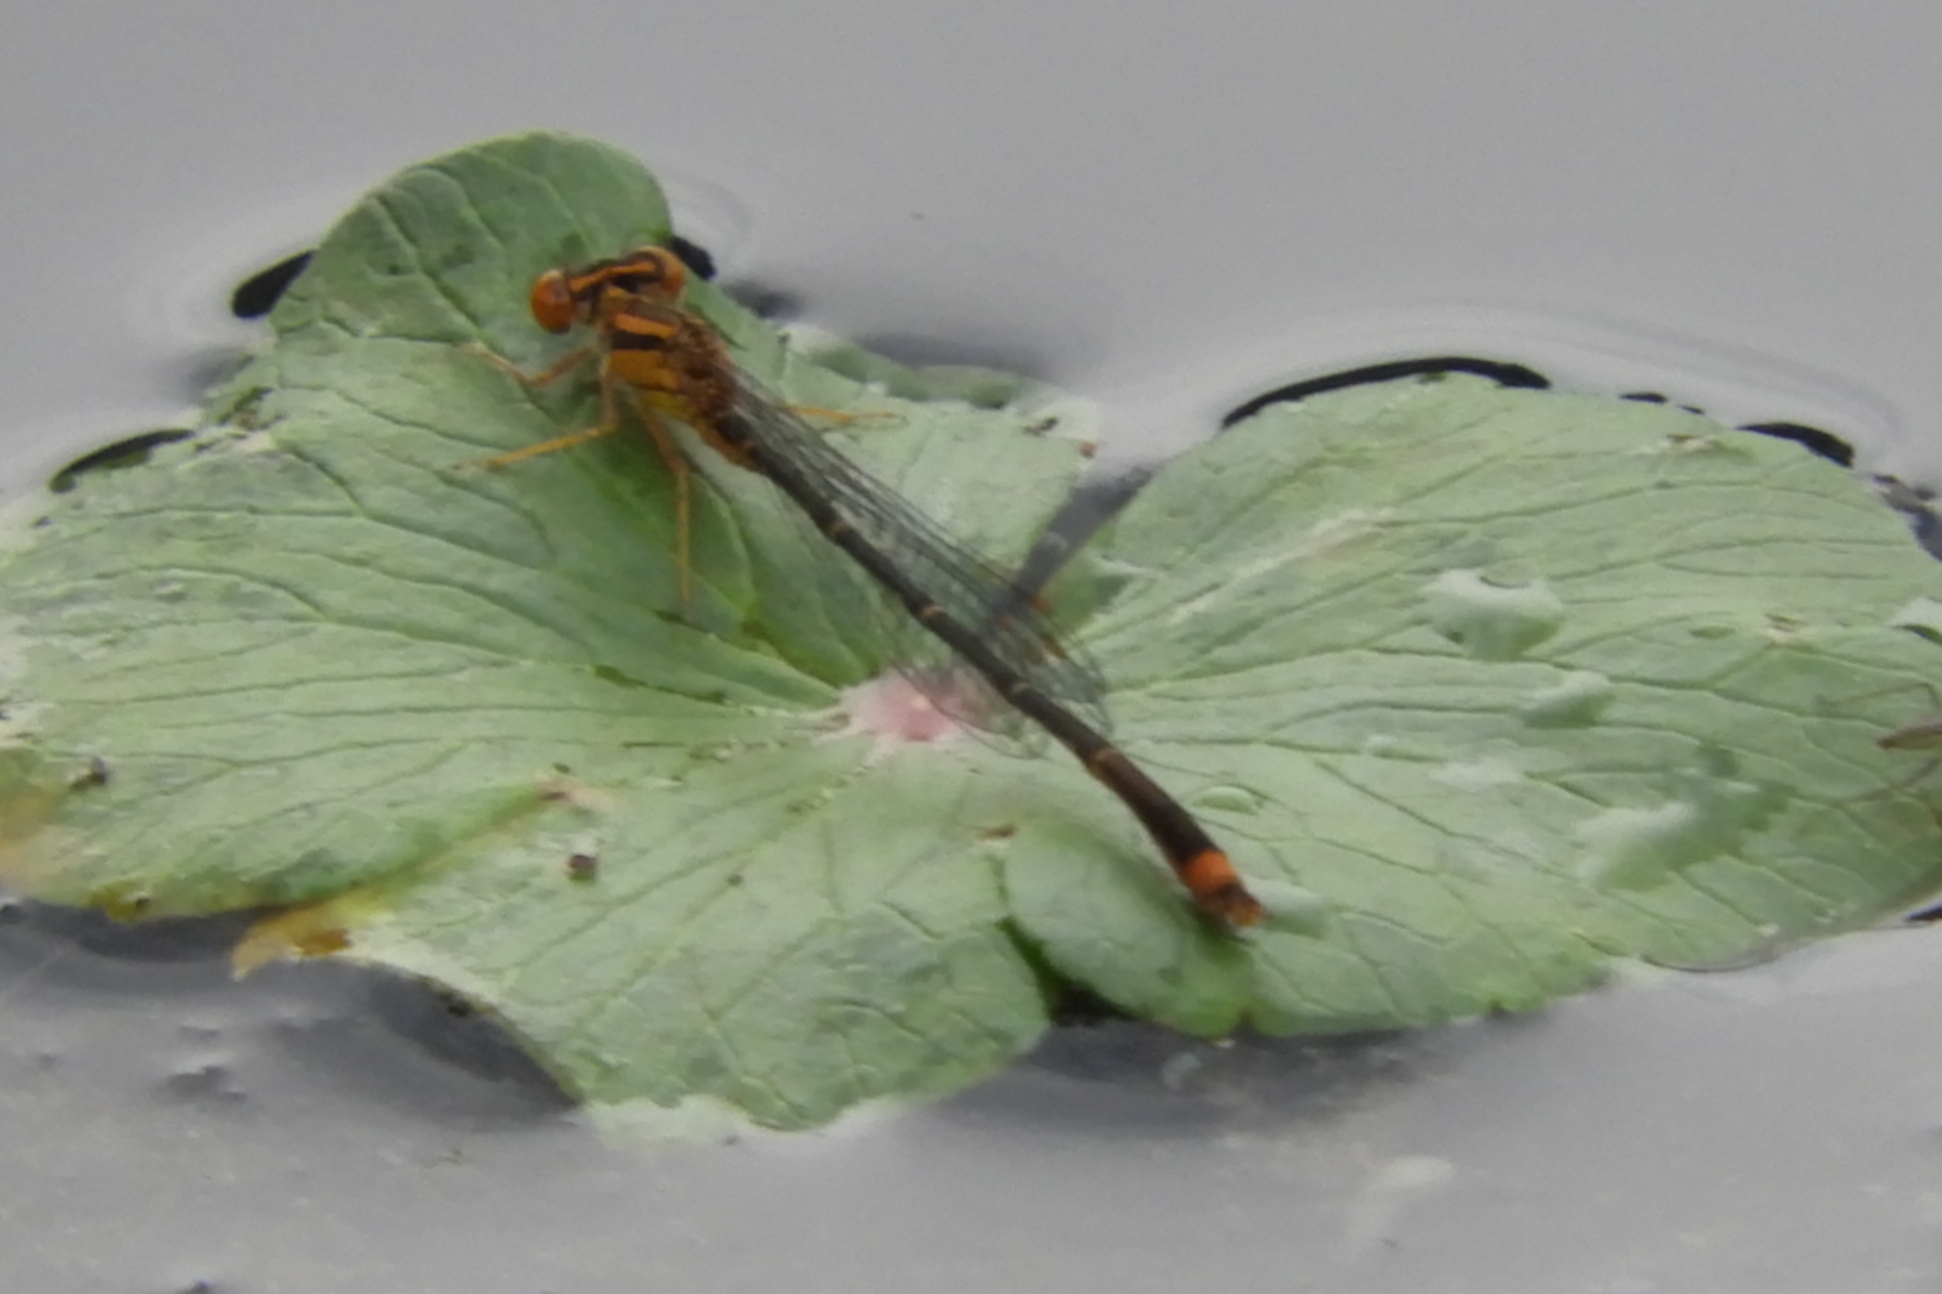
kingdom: Animalia
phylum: Arthropoda
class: Insecta
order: Odonata
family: Coenagrionidae
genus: Enallagma
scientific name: Enallagma signatum
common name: Orange bluet
